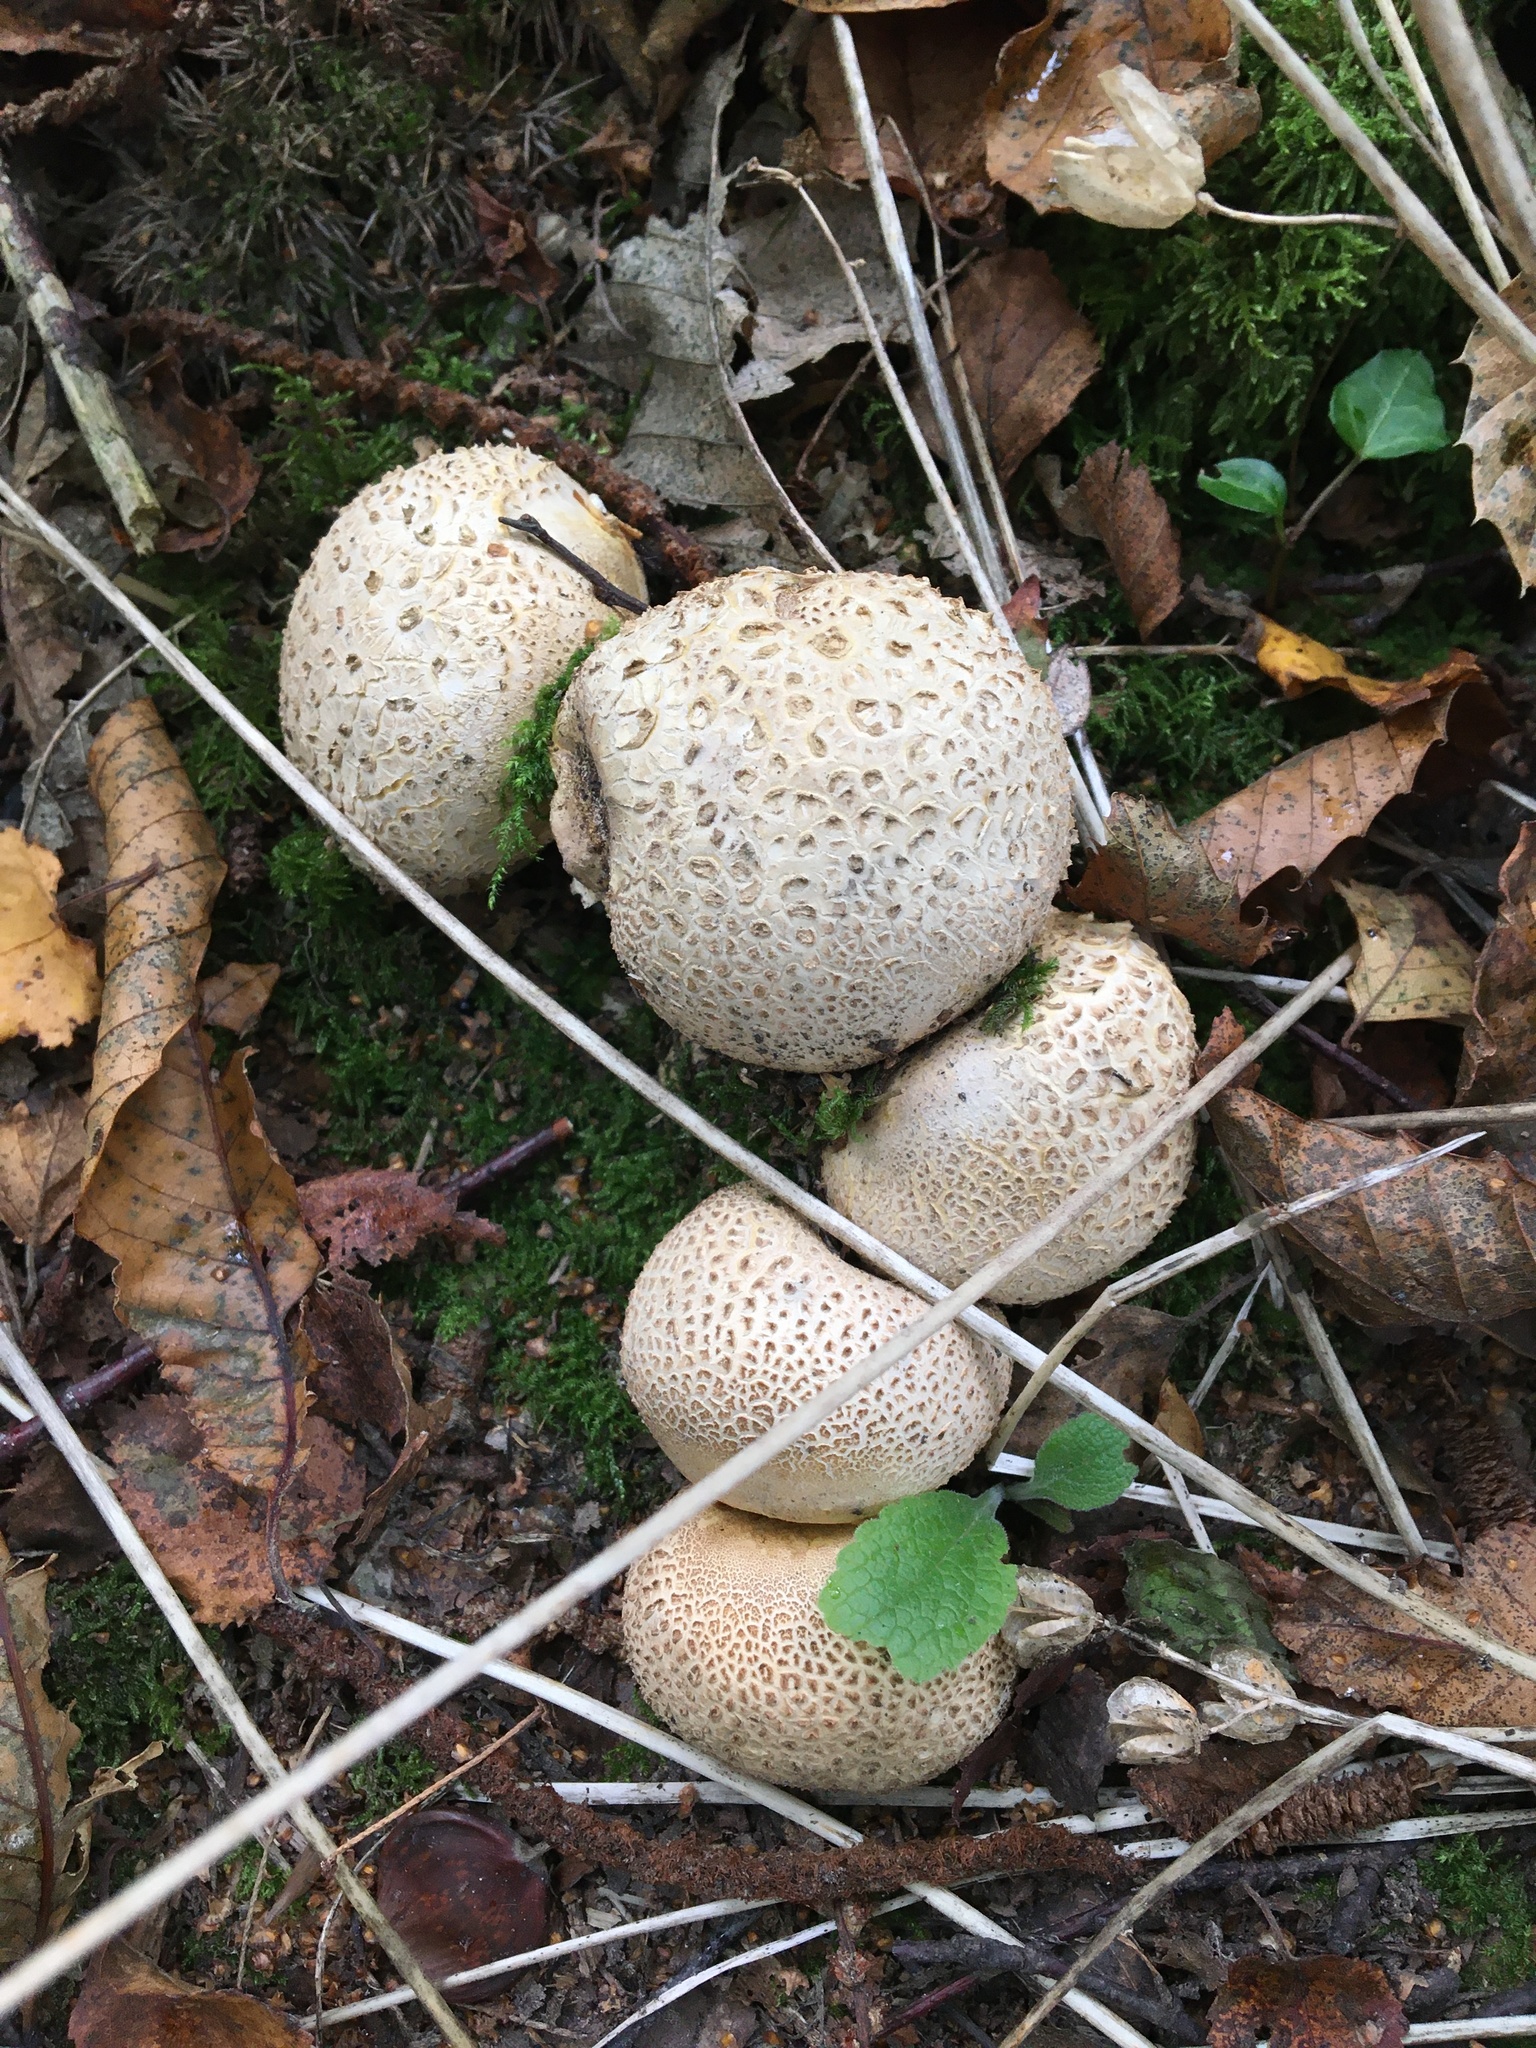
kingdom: Fungi
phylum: Basidiomycota
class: Agaricomycetes
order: Boletales
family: Sclerodermataceae
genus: Scleroderma
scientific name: Scleroderma citrinum
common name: Common earthball
